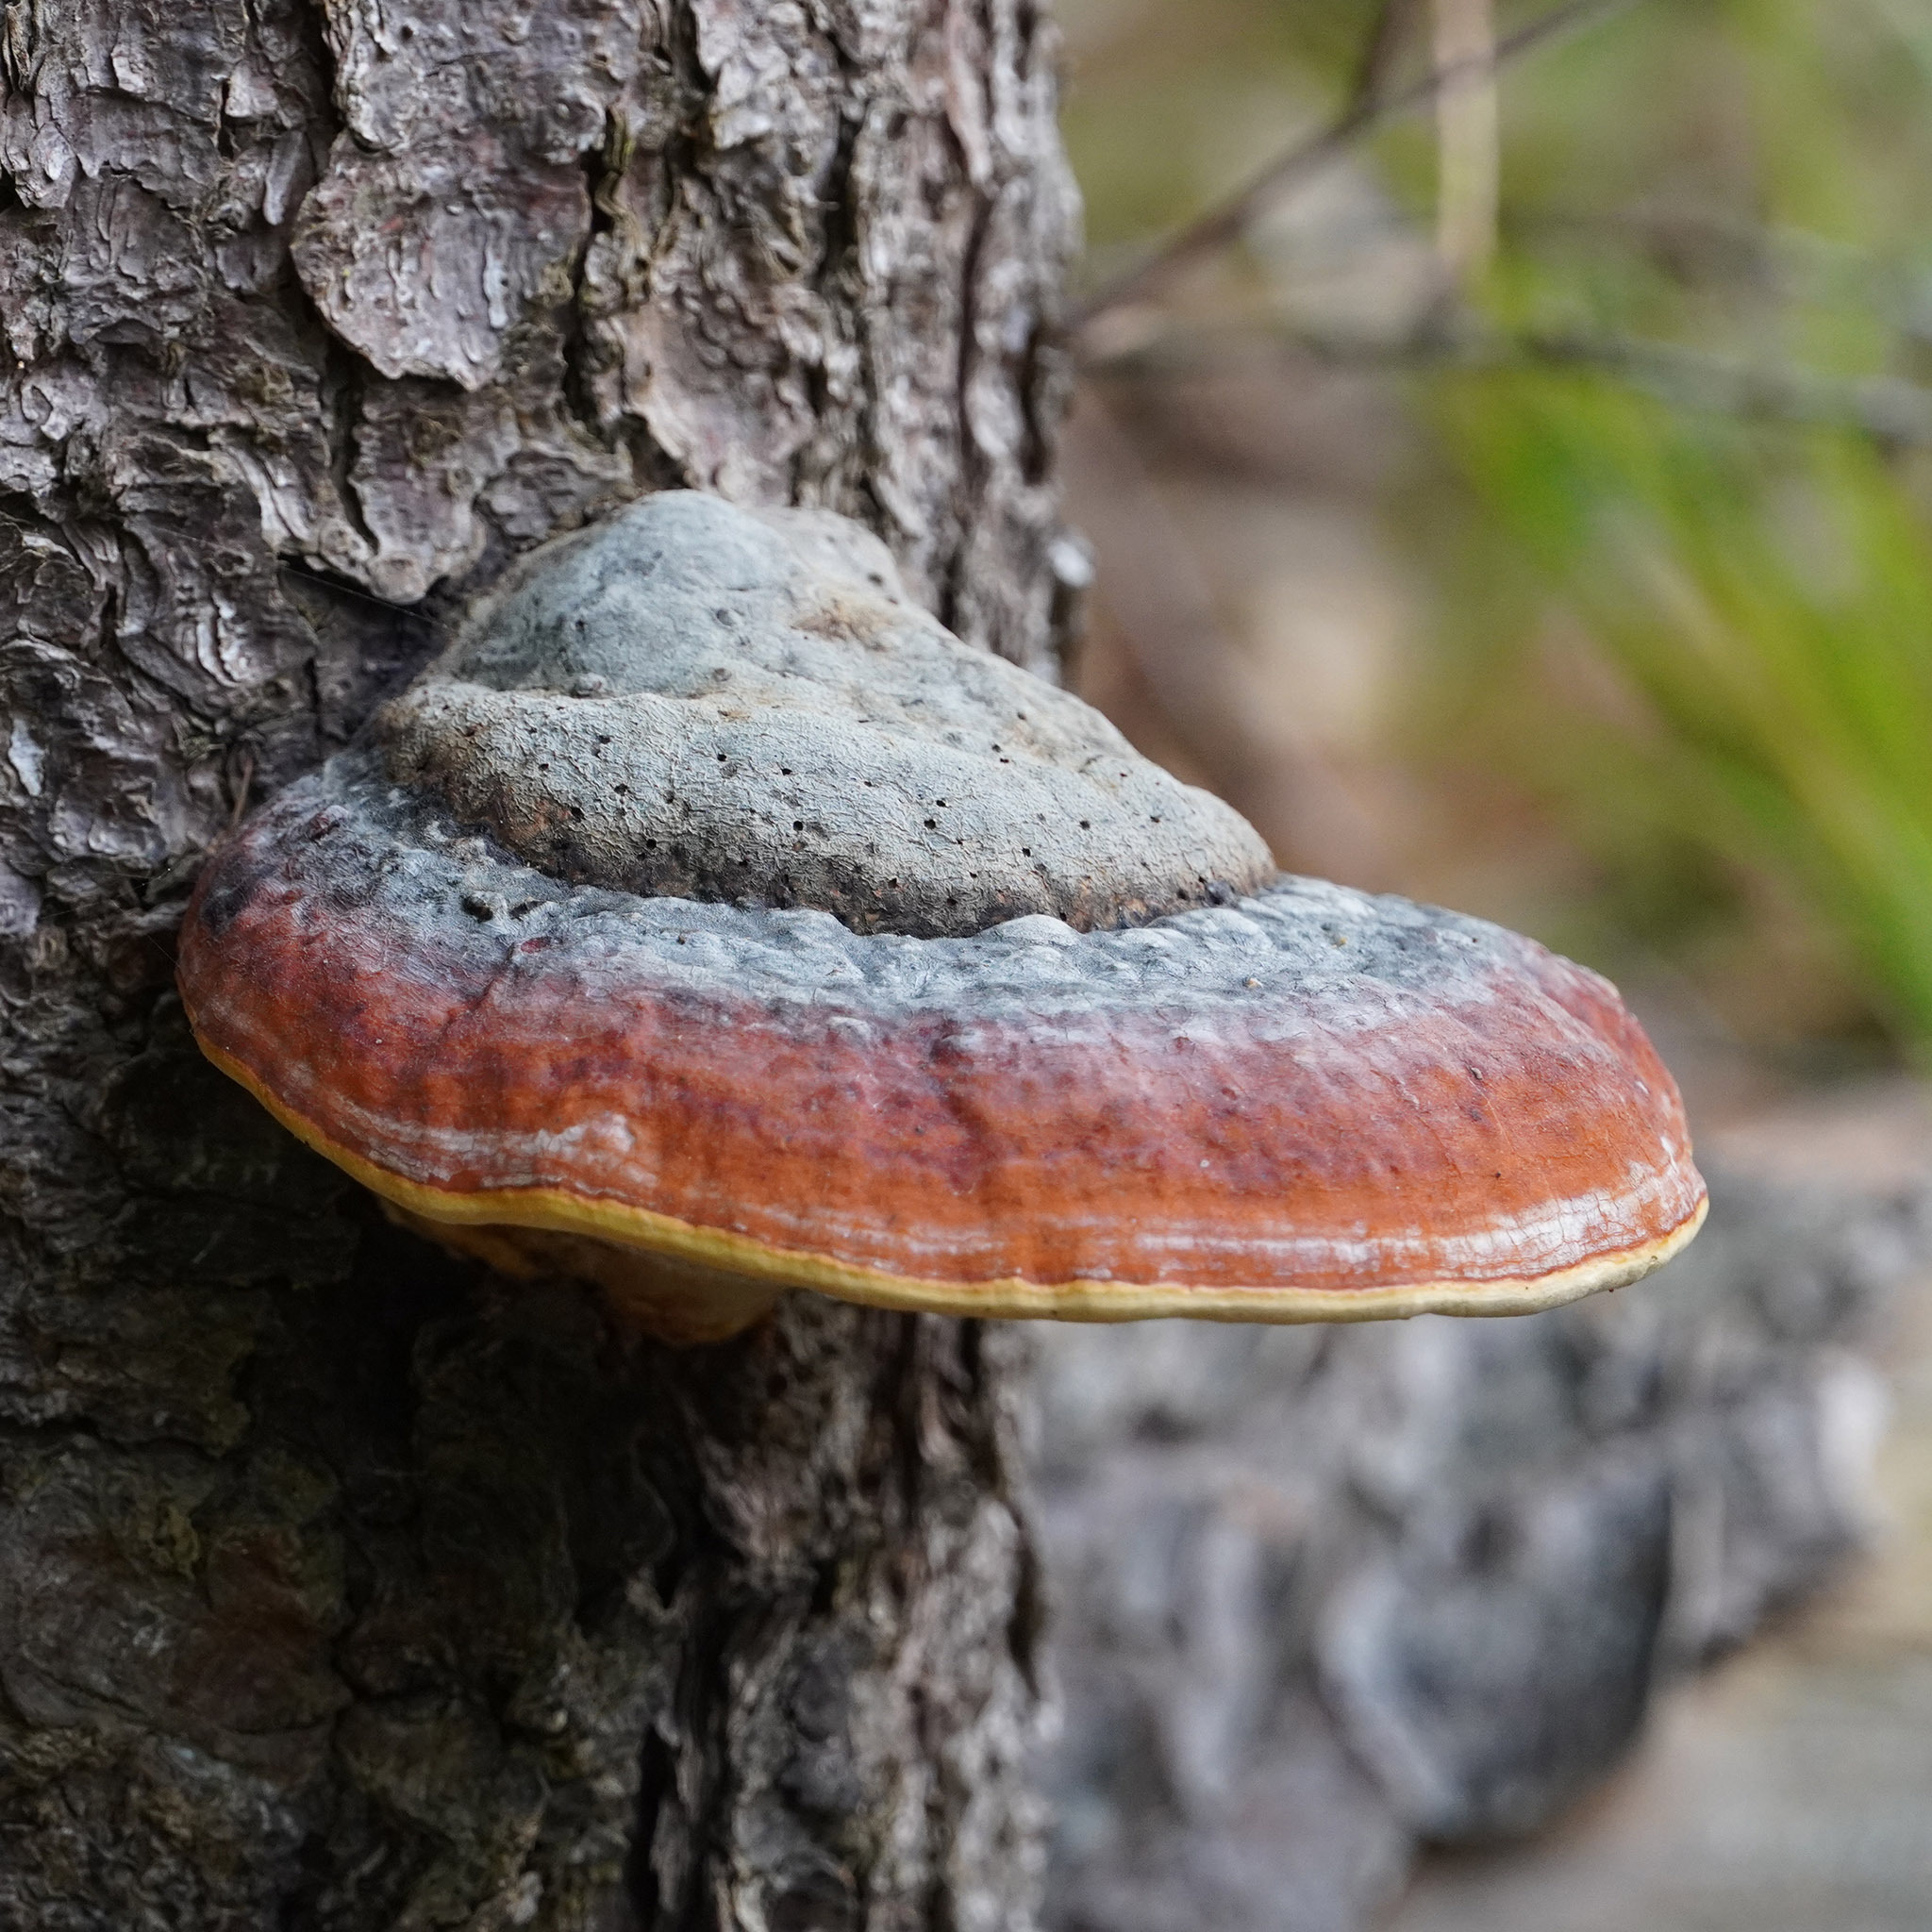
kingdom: Fungi
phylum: Basidiomycota
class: Agaricomycetes
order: Polyporales
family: Fomitopsidaceae
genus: Fomitopsis
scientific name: Fomitopsis pinicola
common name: Red-belted bracket
